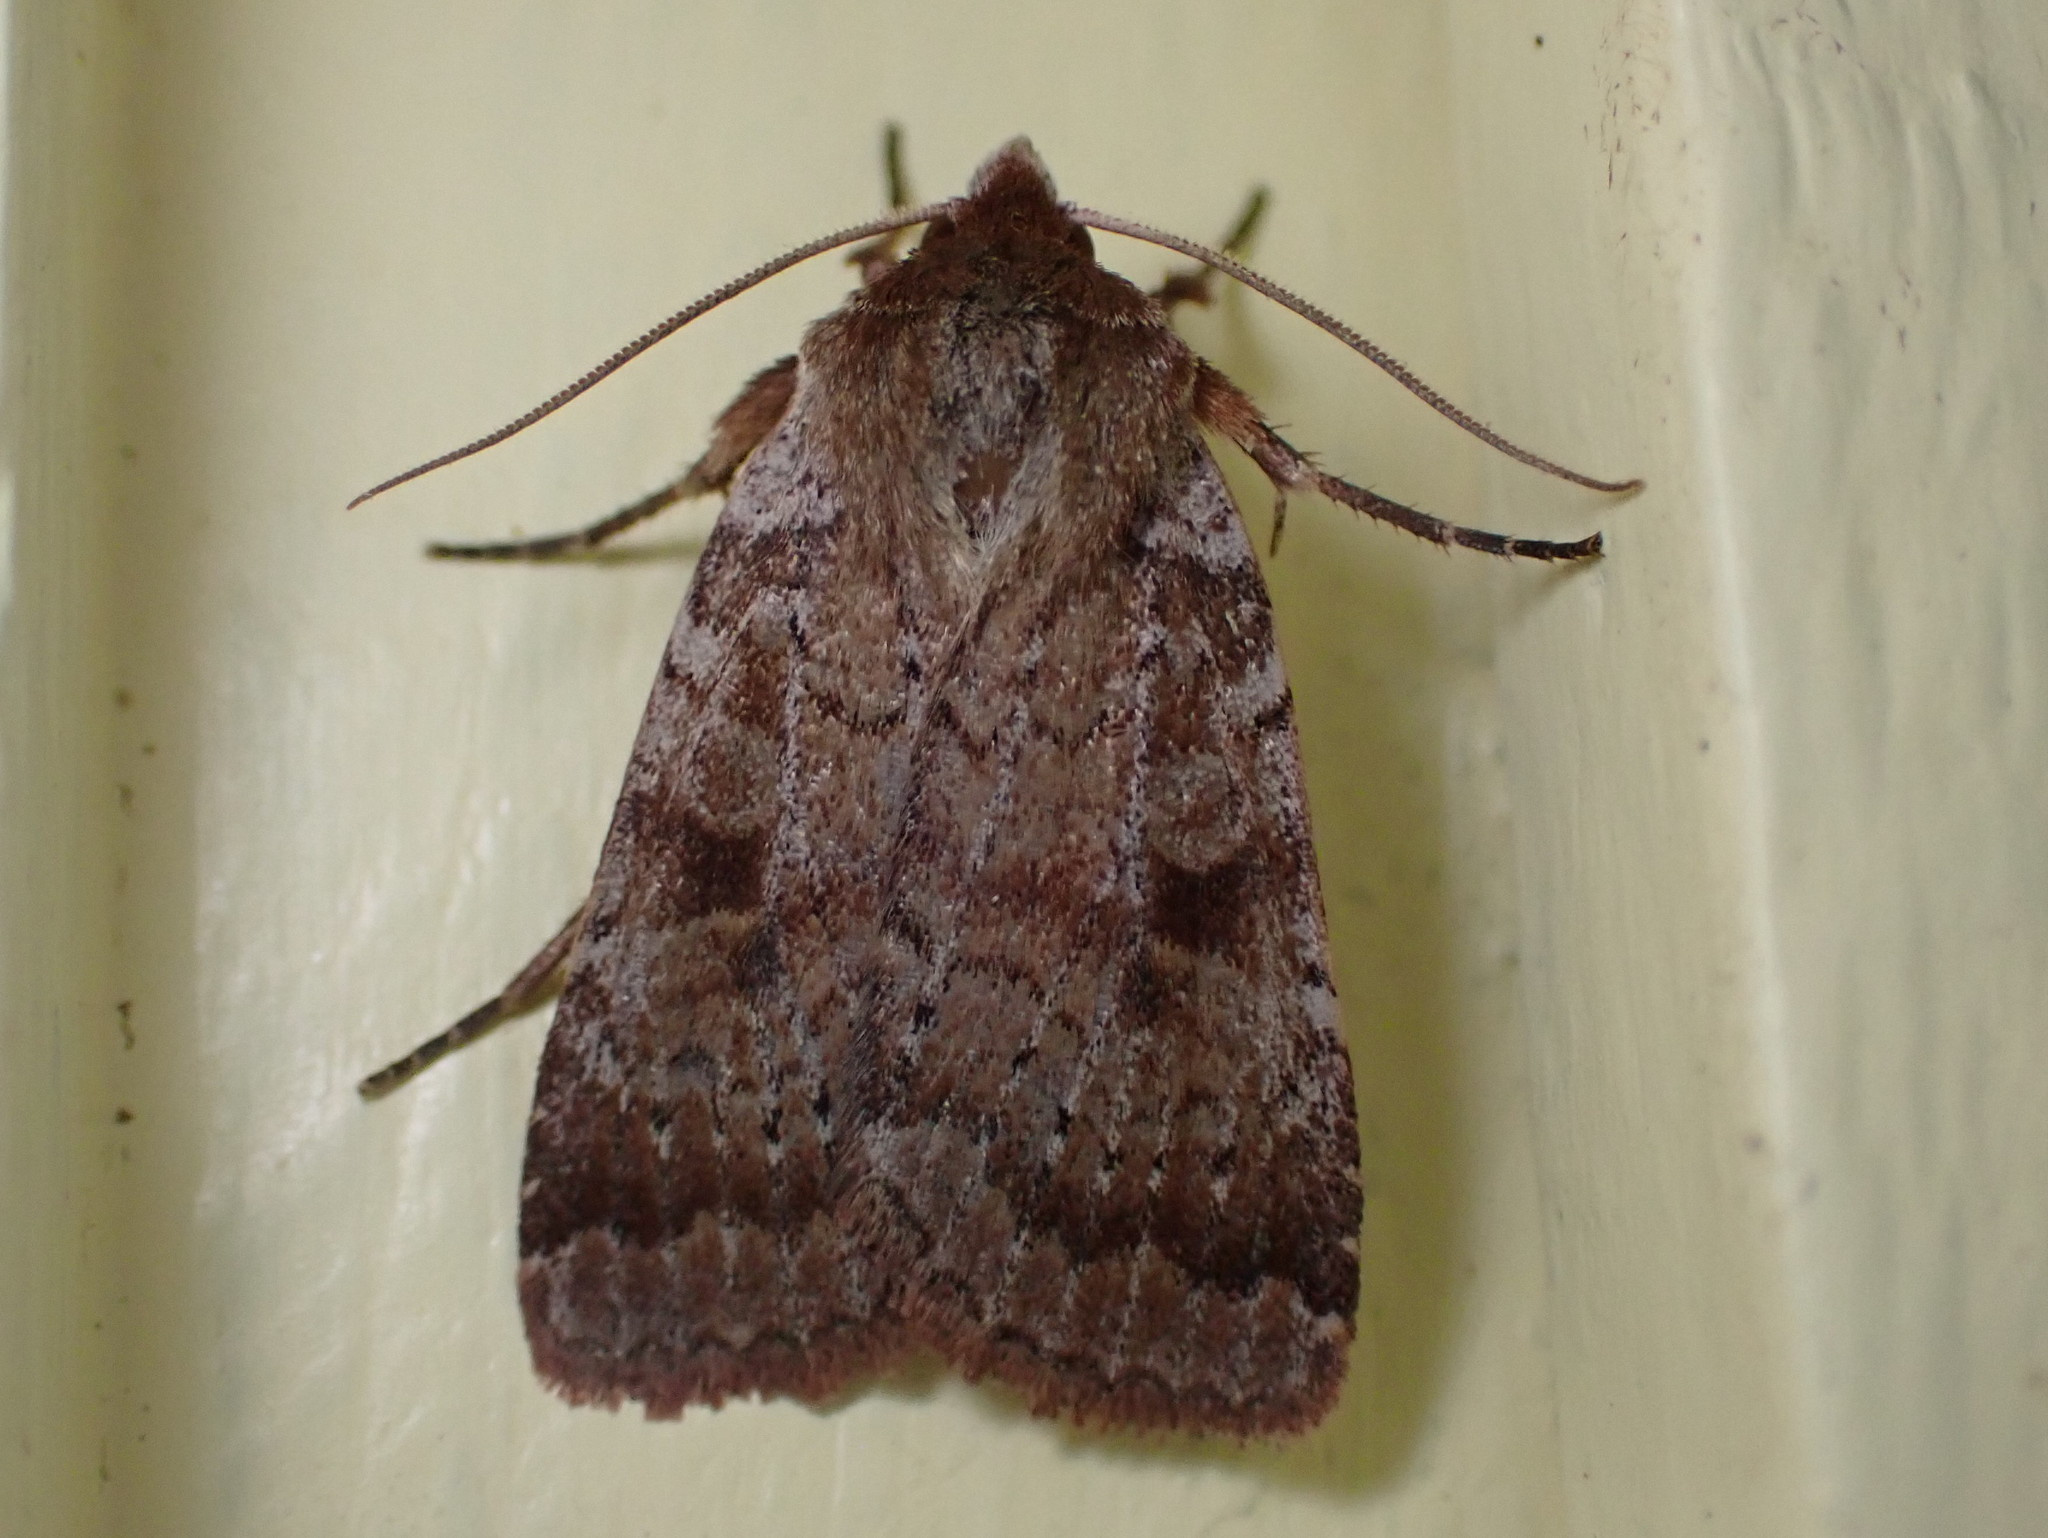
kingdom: Animalia
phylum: Arthropoda
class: Insecta
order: Lepidoptera
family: Noctuidae
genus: Lycophotia
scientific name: Lycophotia phyllophora
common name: Lycophotia moth
